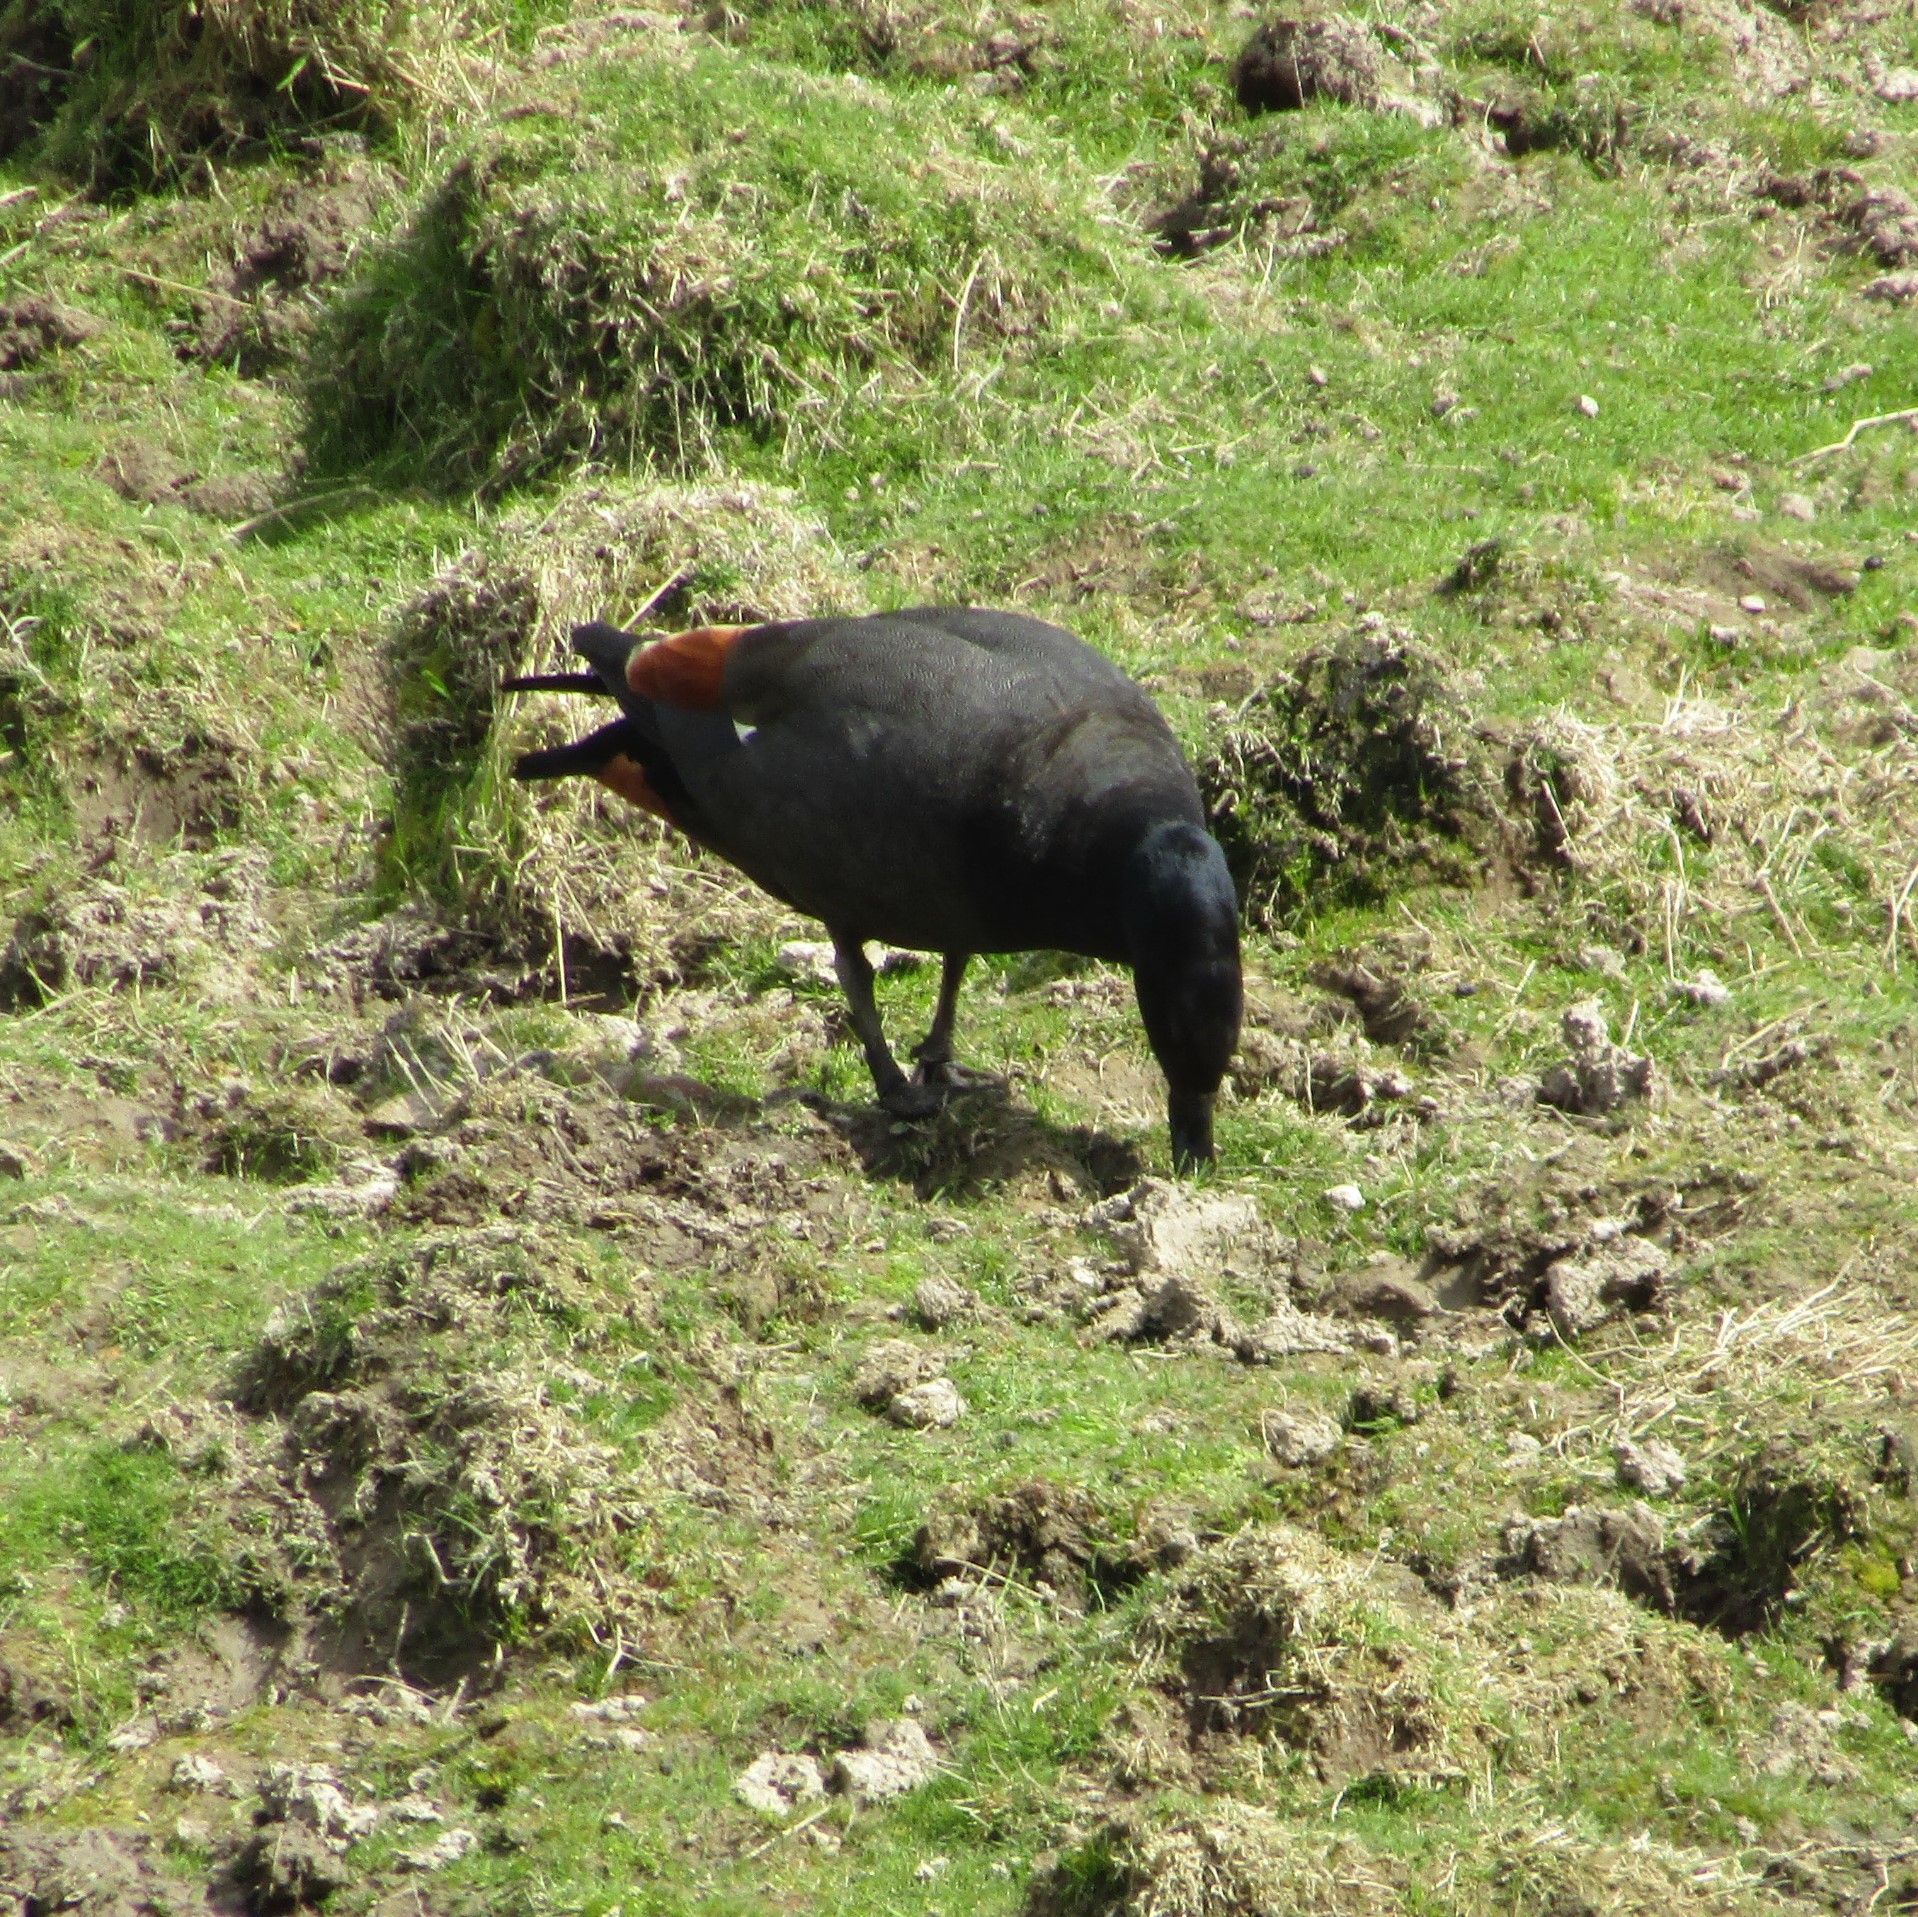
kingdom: Animalia
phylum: Chordata
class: Aves
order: Anseriformes
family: Anatidae
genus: Tadorna
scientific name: Tadorna variegata
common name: Paradise shelduck
